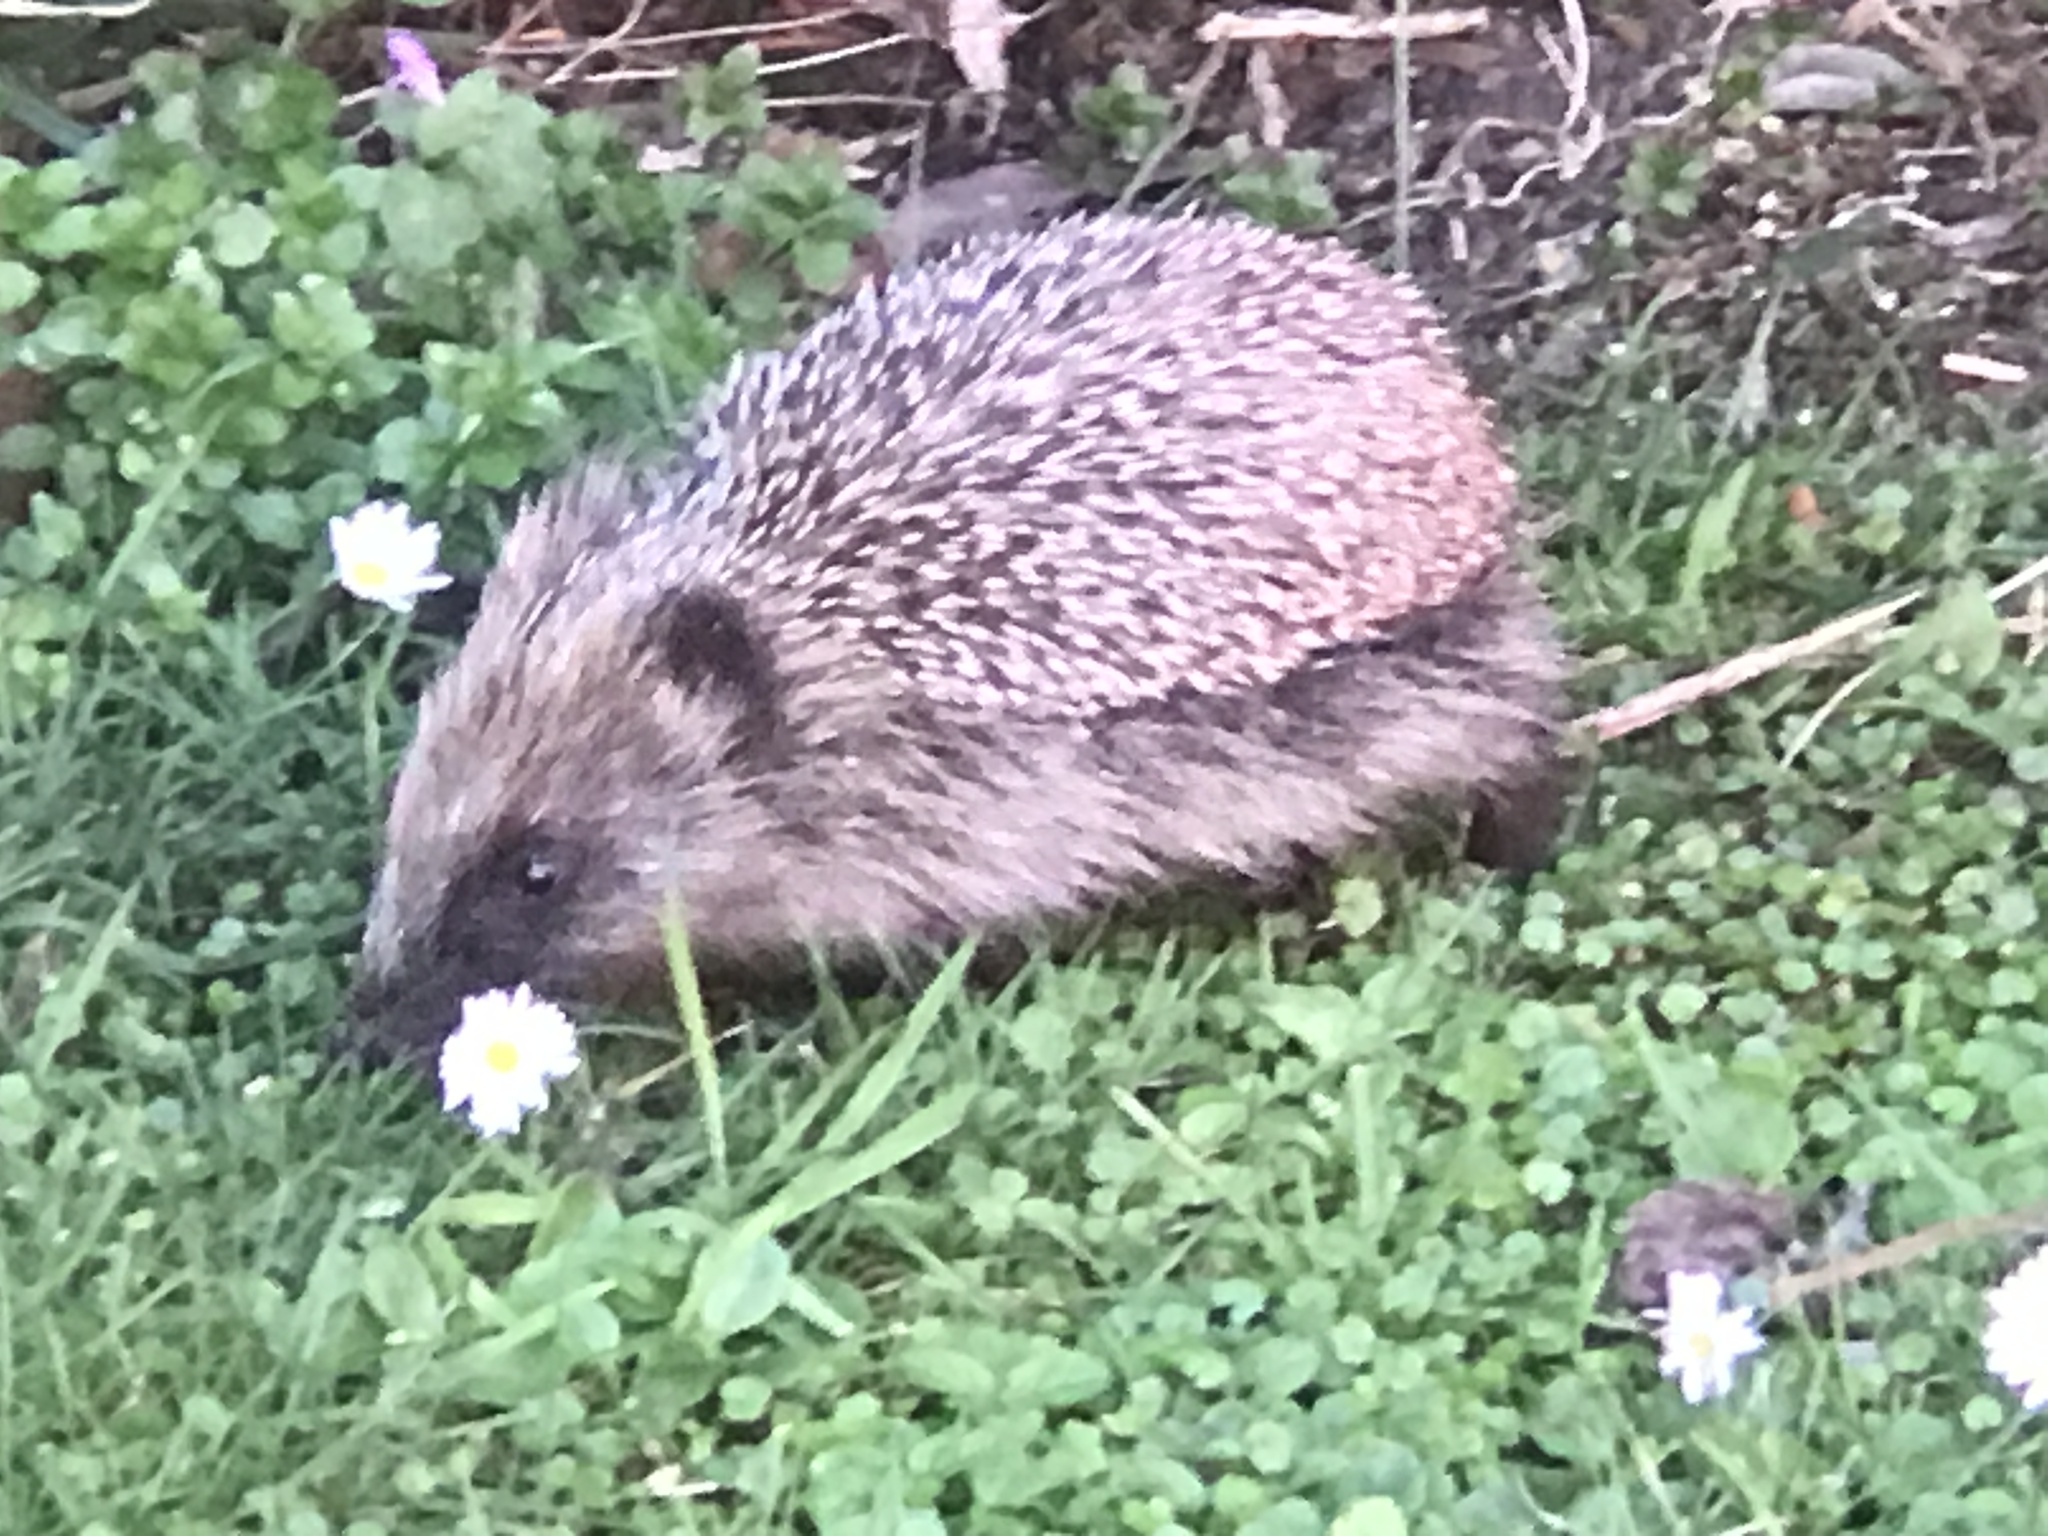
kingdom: Animalia
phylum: Chordata
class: Mammalia
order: Erinaceomorpha
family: Erinaceidae
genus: Erinaceus
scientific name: Erinaceus europaeus
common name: West european hedgehog
